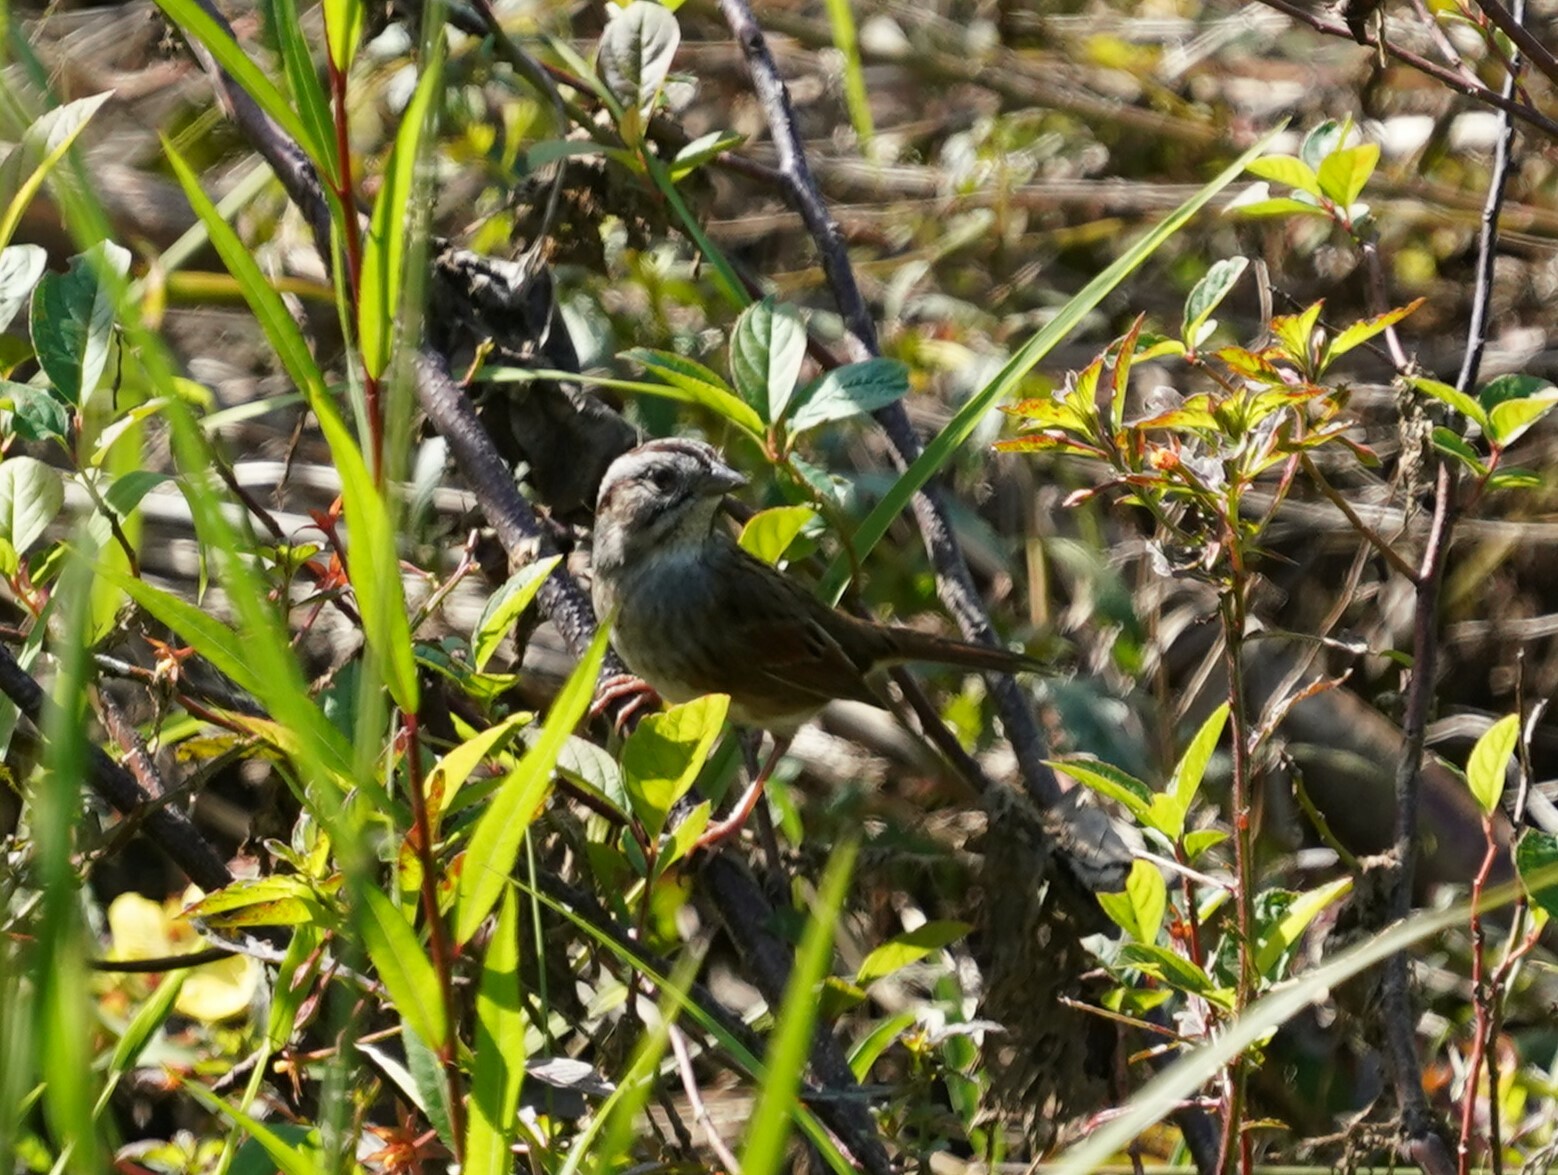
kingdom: Animalia
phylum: Chordata
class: Aves
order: Passeriformes
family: Passerellidae
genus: Melospiza
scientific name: Melospiza georgiana
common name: Swamp sparrow
